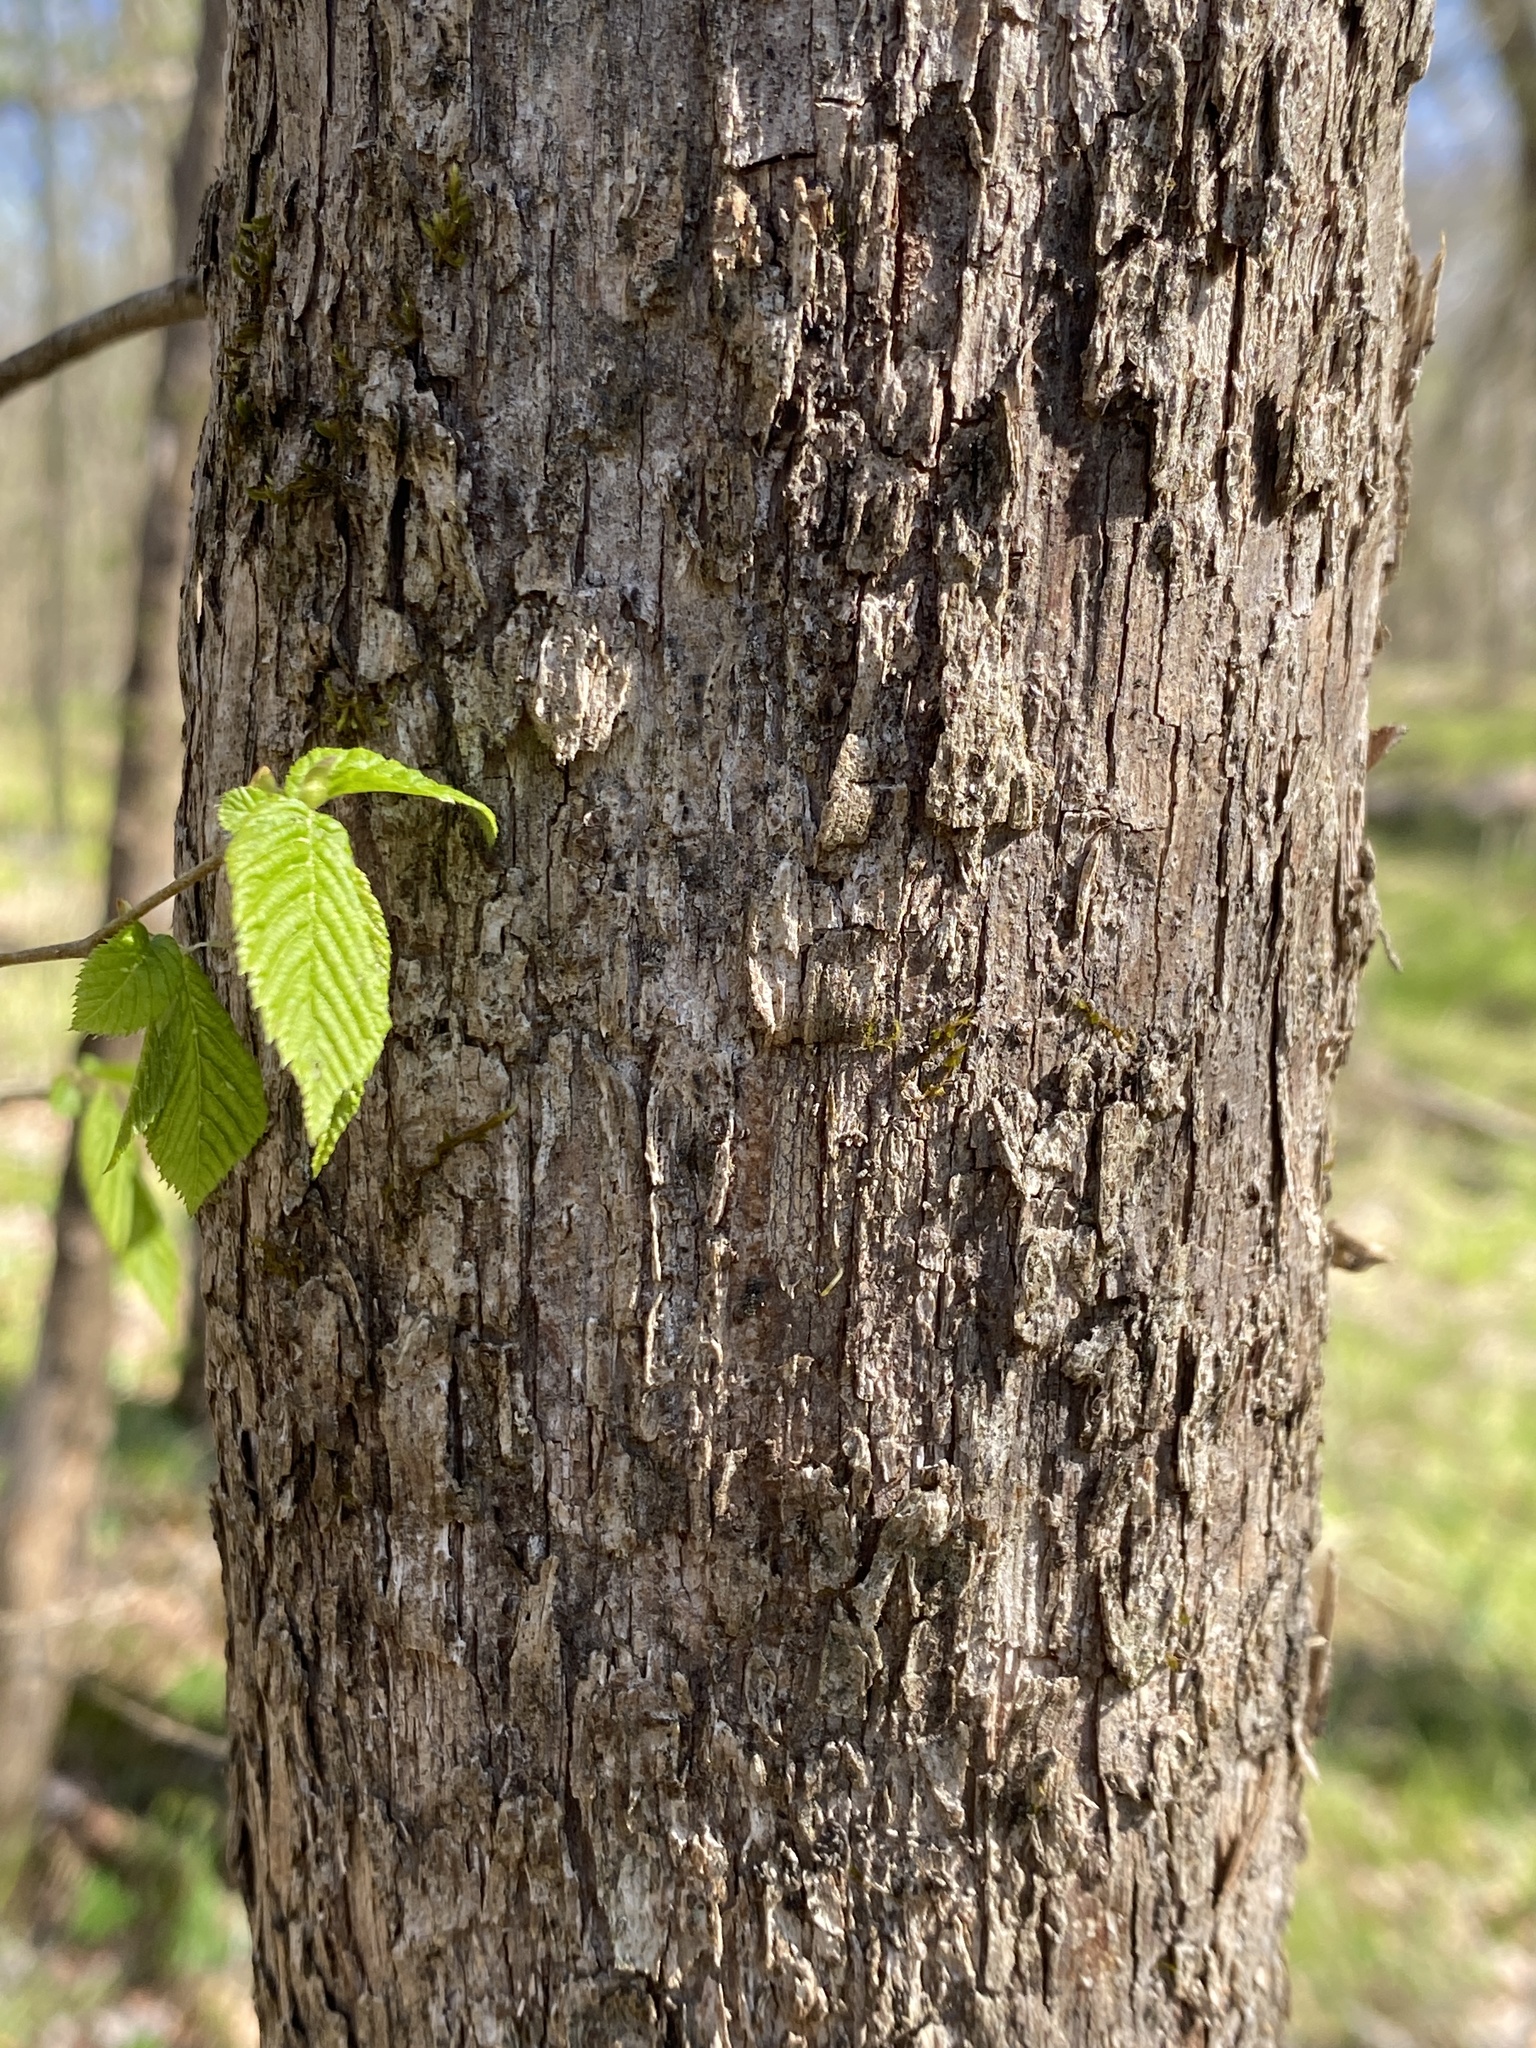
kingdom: Plantae
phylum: Tracheophyta
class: Magnoliopsida
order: Fagales
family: Betulaceae
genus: Ostrya
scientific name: Ostrya virginiana
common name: Ironwood
